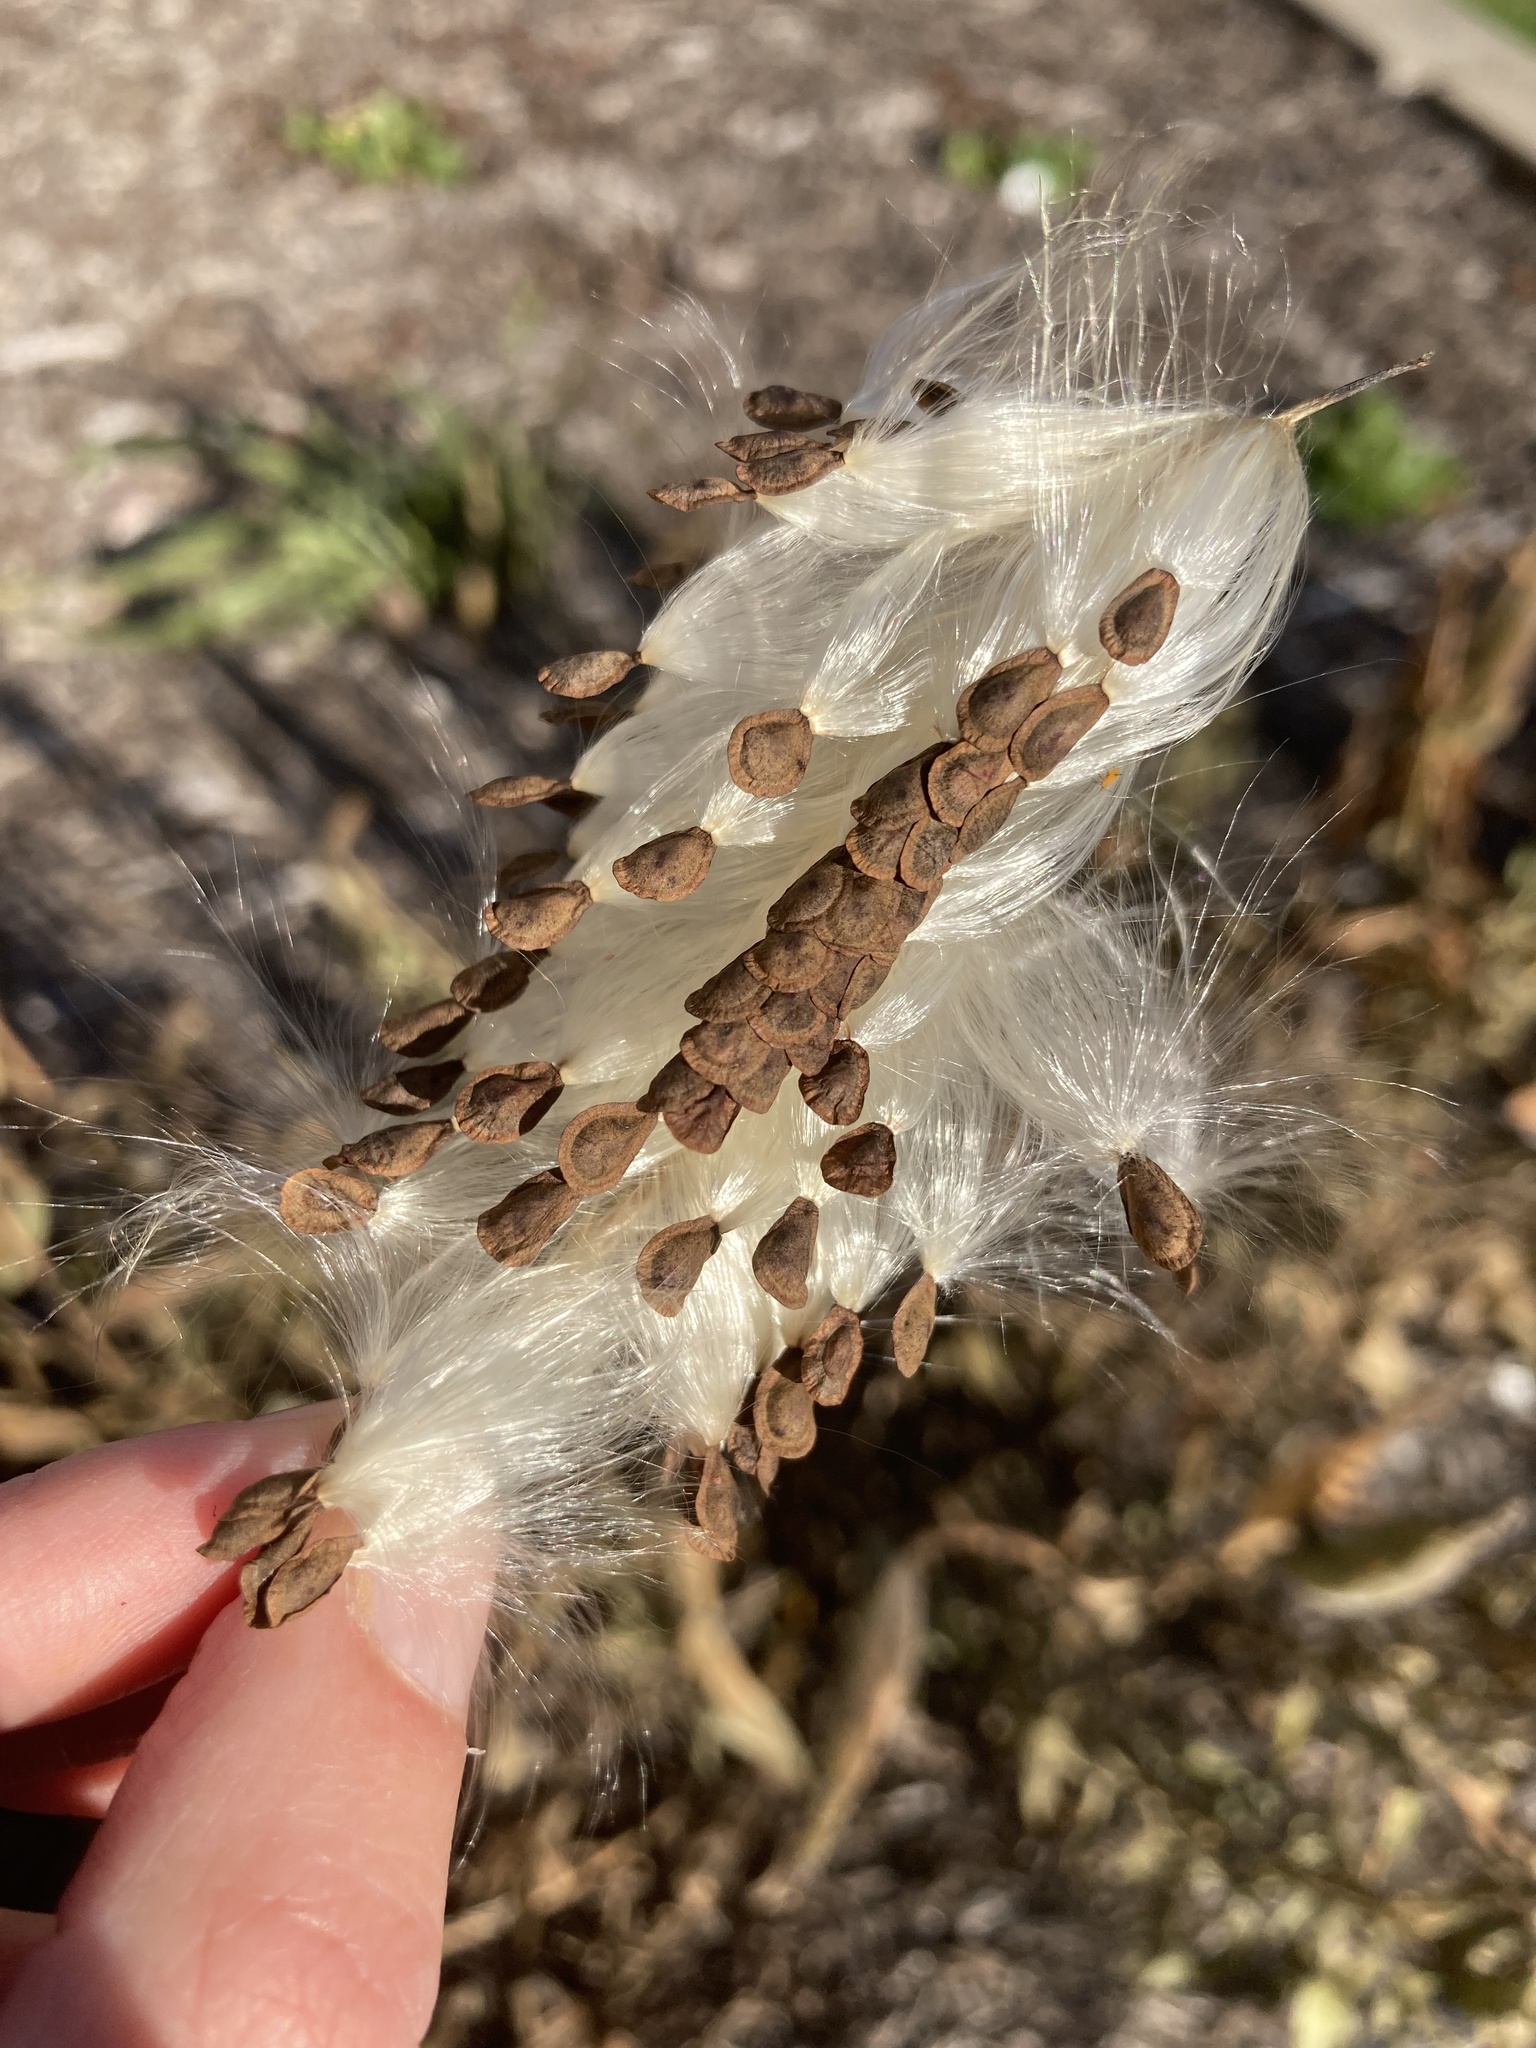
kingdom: Plantae
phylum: Tracheophyta
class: Magnoliopsida
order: Gentianales
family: Apocynaceae
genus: Asclepias
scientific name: Asclepias tuberosa
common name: Butterfly milkweed
